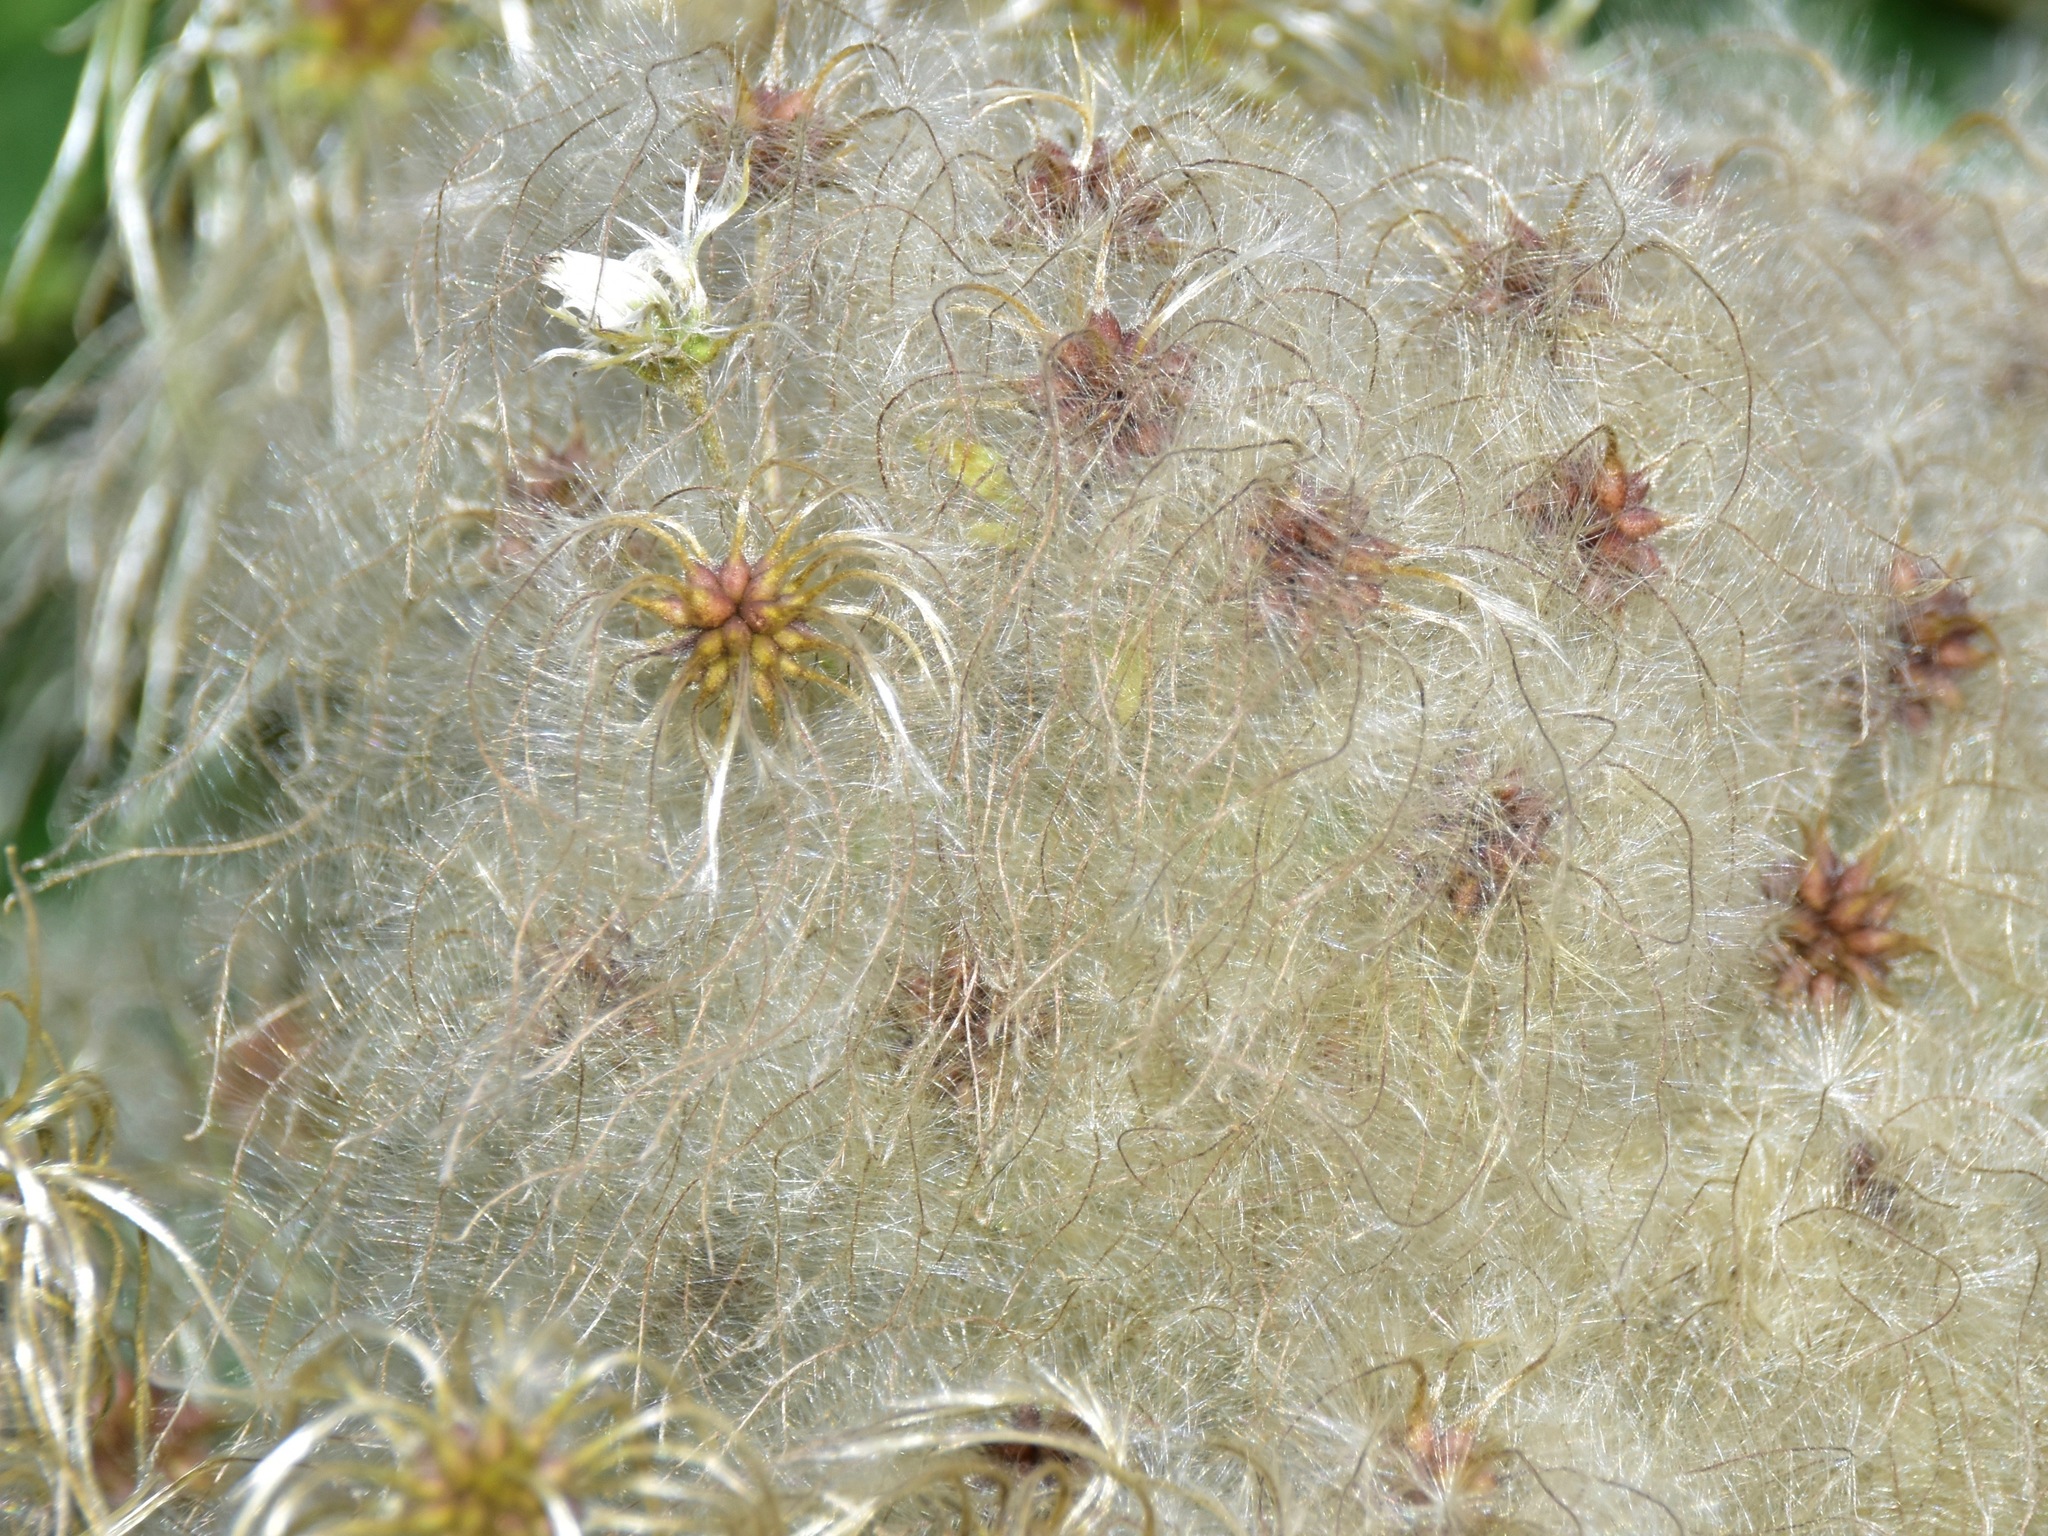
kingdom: Plantae
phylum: Tracheophyta
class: Magnoliopsida
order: Ranunculales
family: Ranunculaceae
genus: Clematis
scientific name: Clematis vitalba
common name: Evergreen clematis
